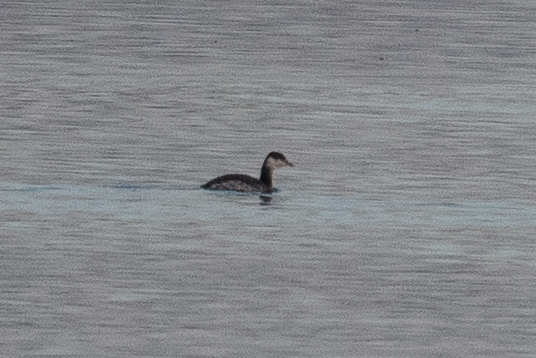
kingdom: Animalia
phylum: Chordata
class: Aves
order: Podicipediformes
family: Podicipedidae
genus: Podiceps
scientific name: Podiceps auritus
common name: Horned grebe
